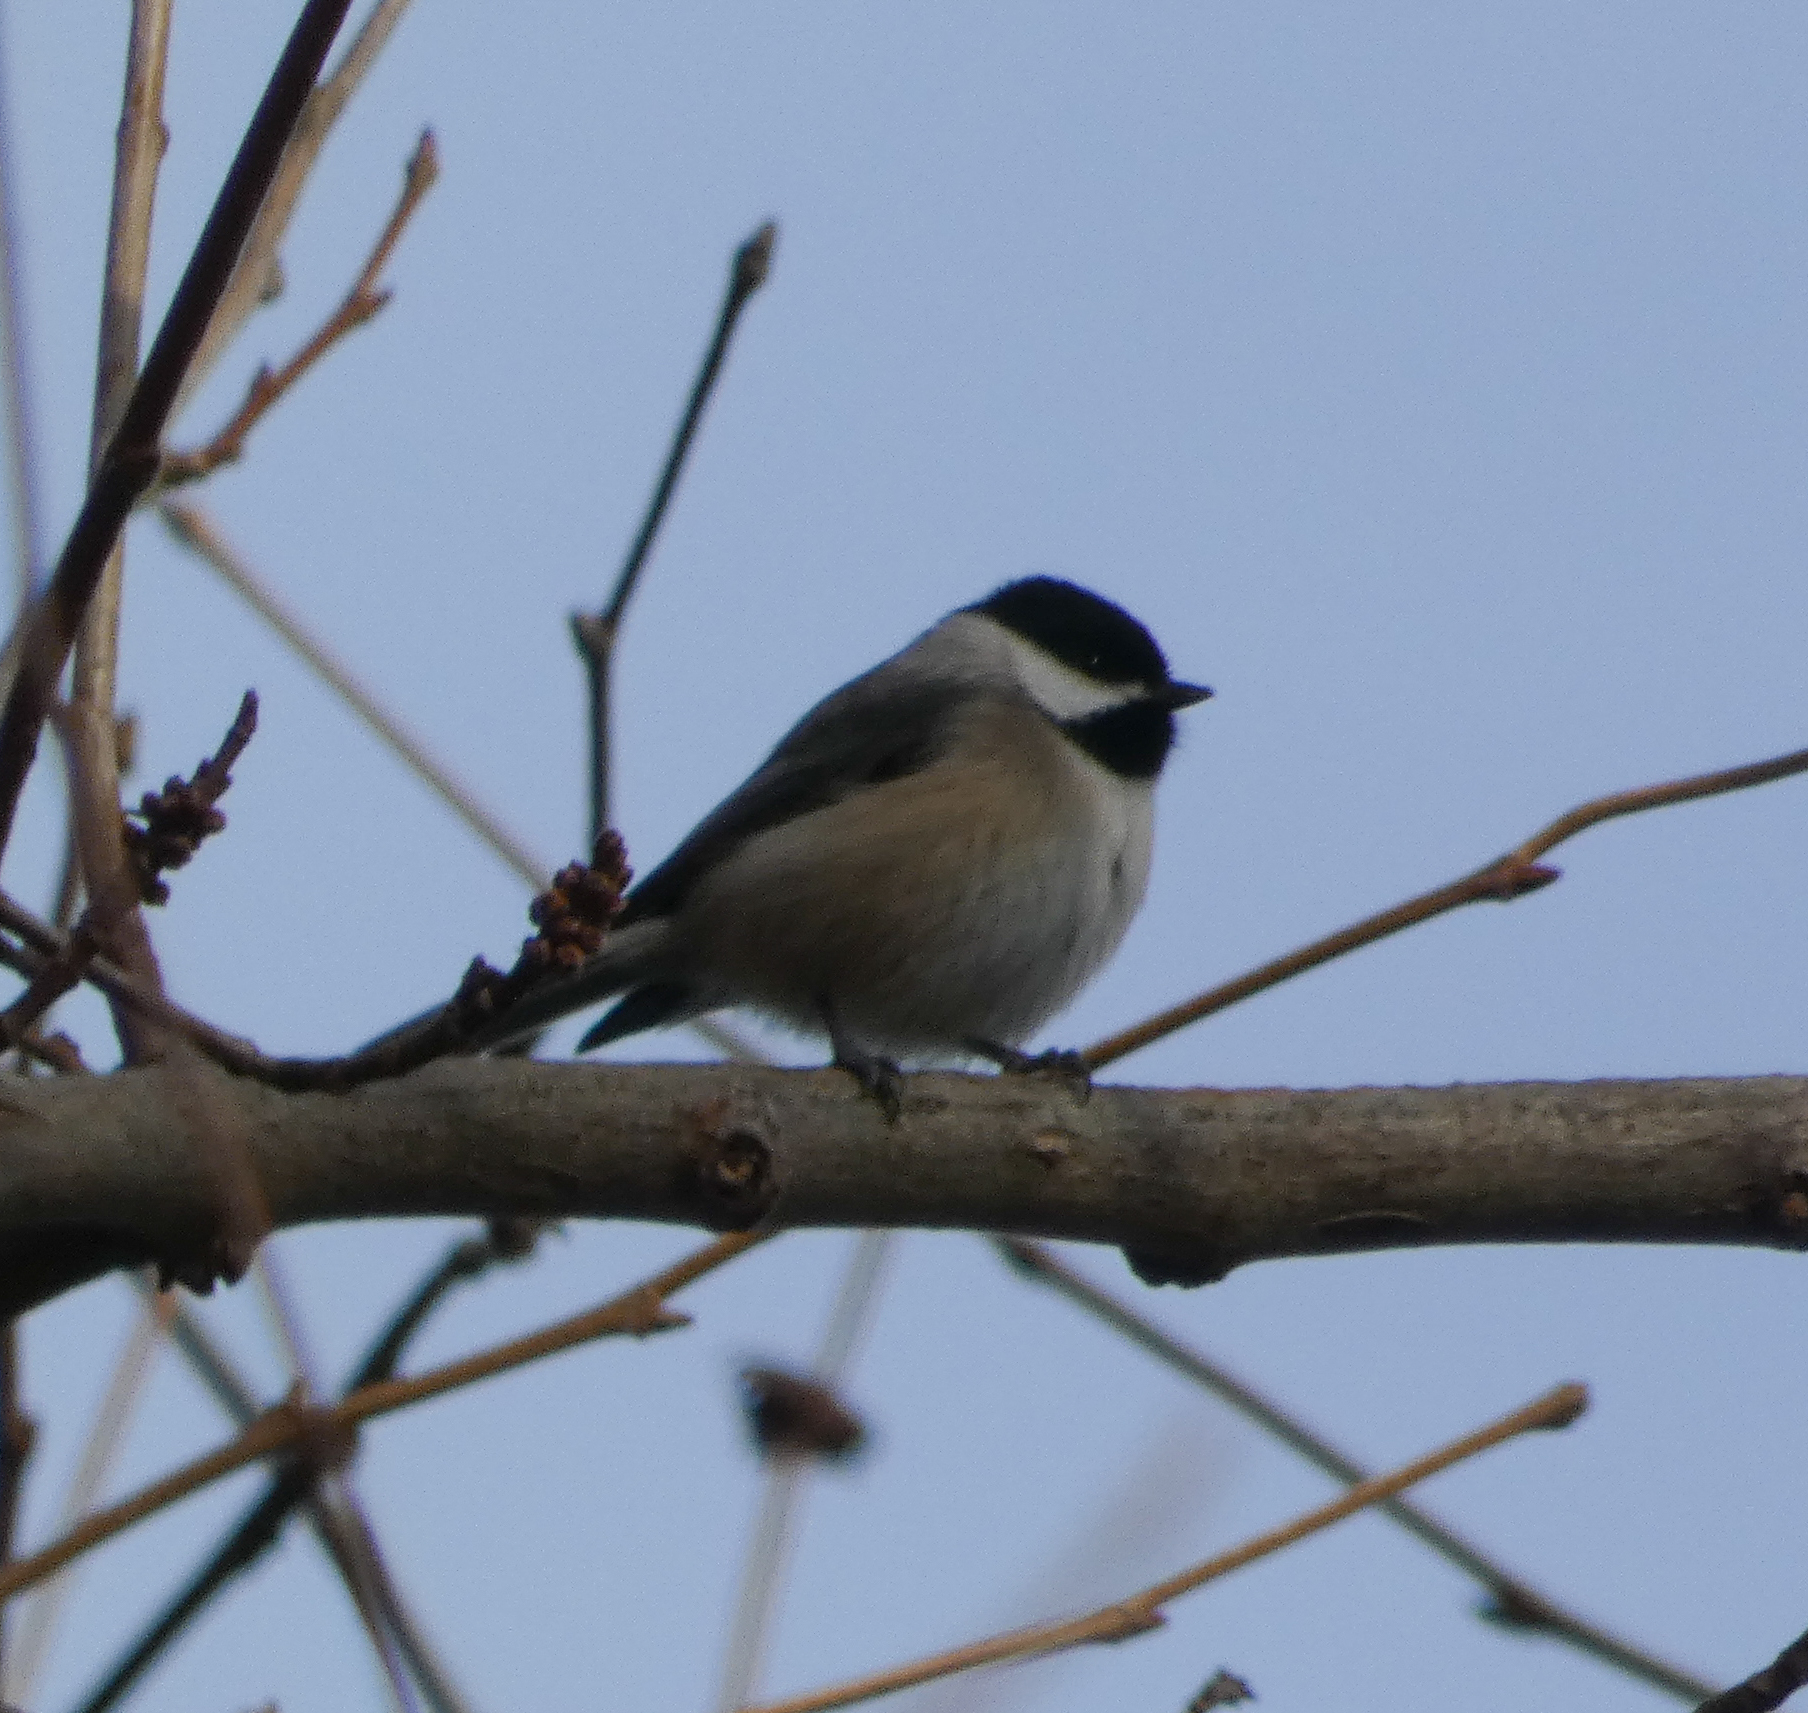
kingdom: Animalia
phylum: Chordata
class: Aves
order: Passeriformes
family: Paridae
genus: Poecile
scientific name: Poecile carolinensis
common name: Carolina chickadee
